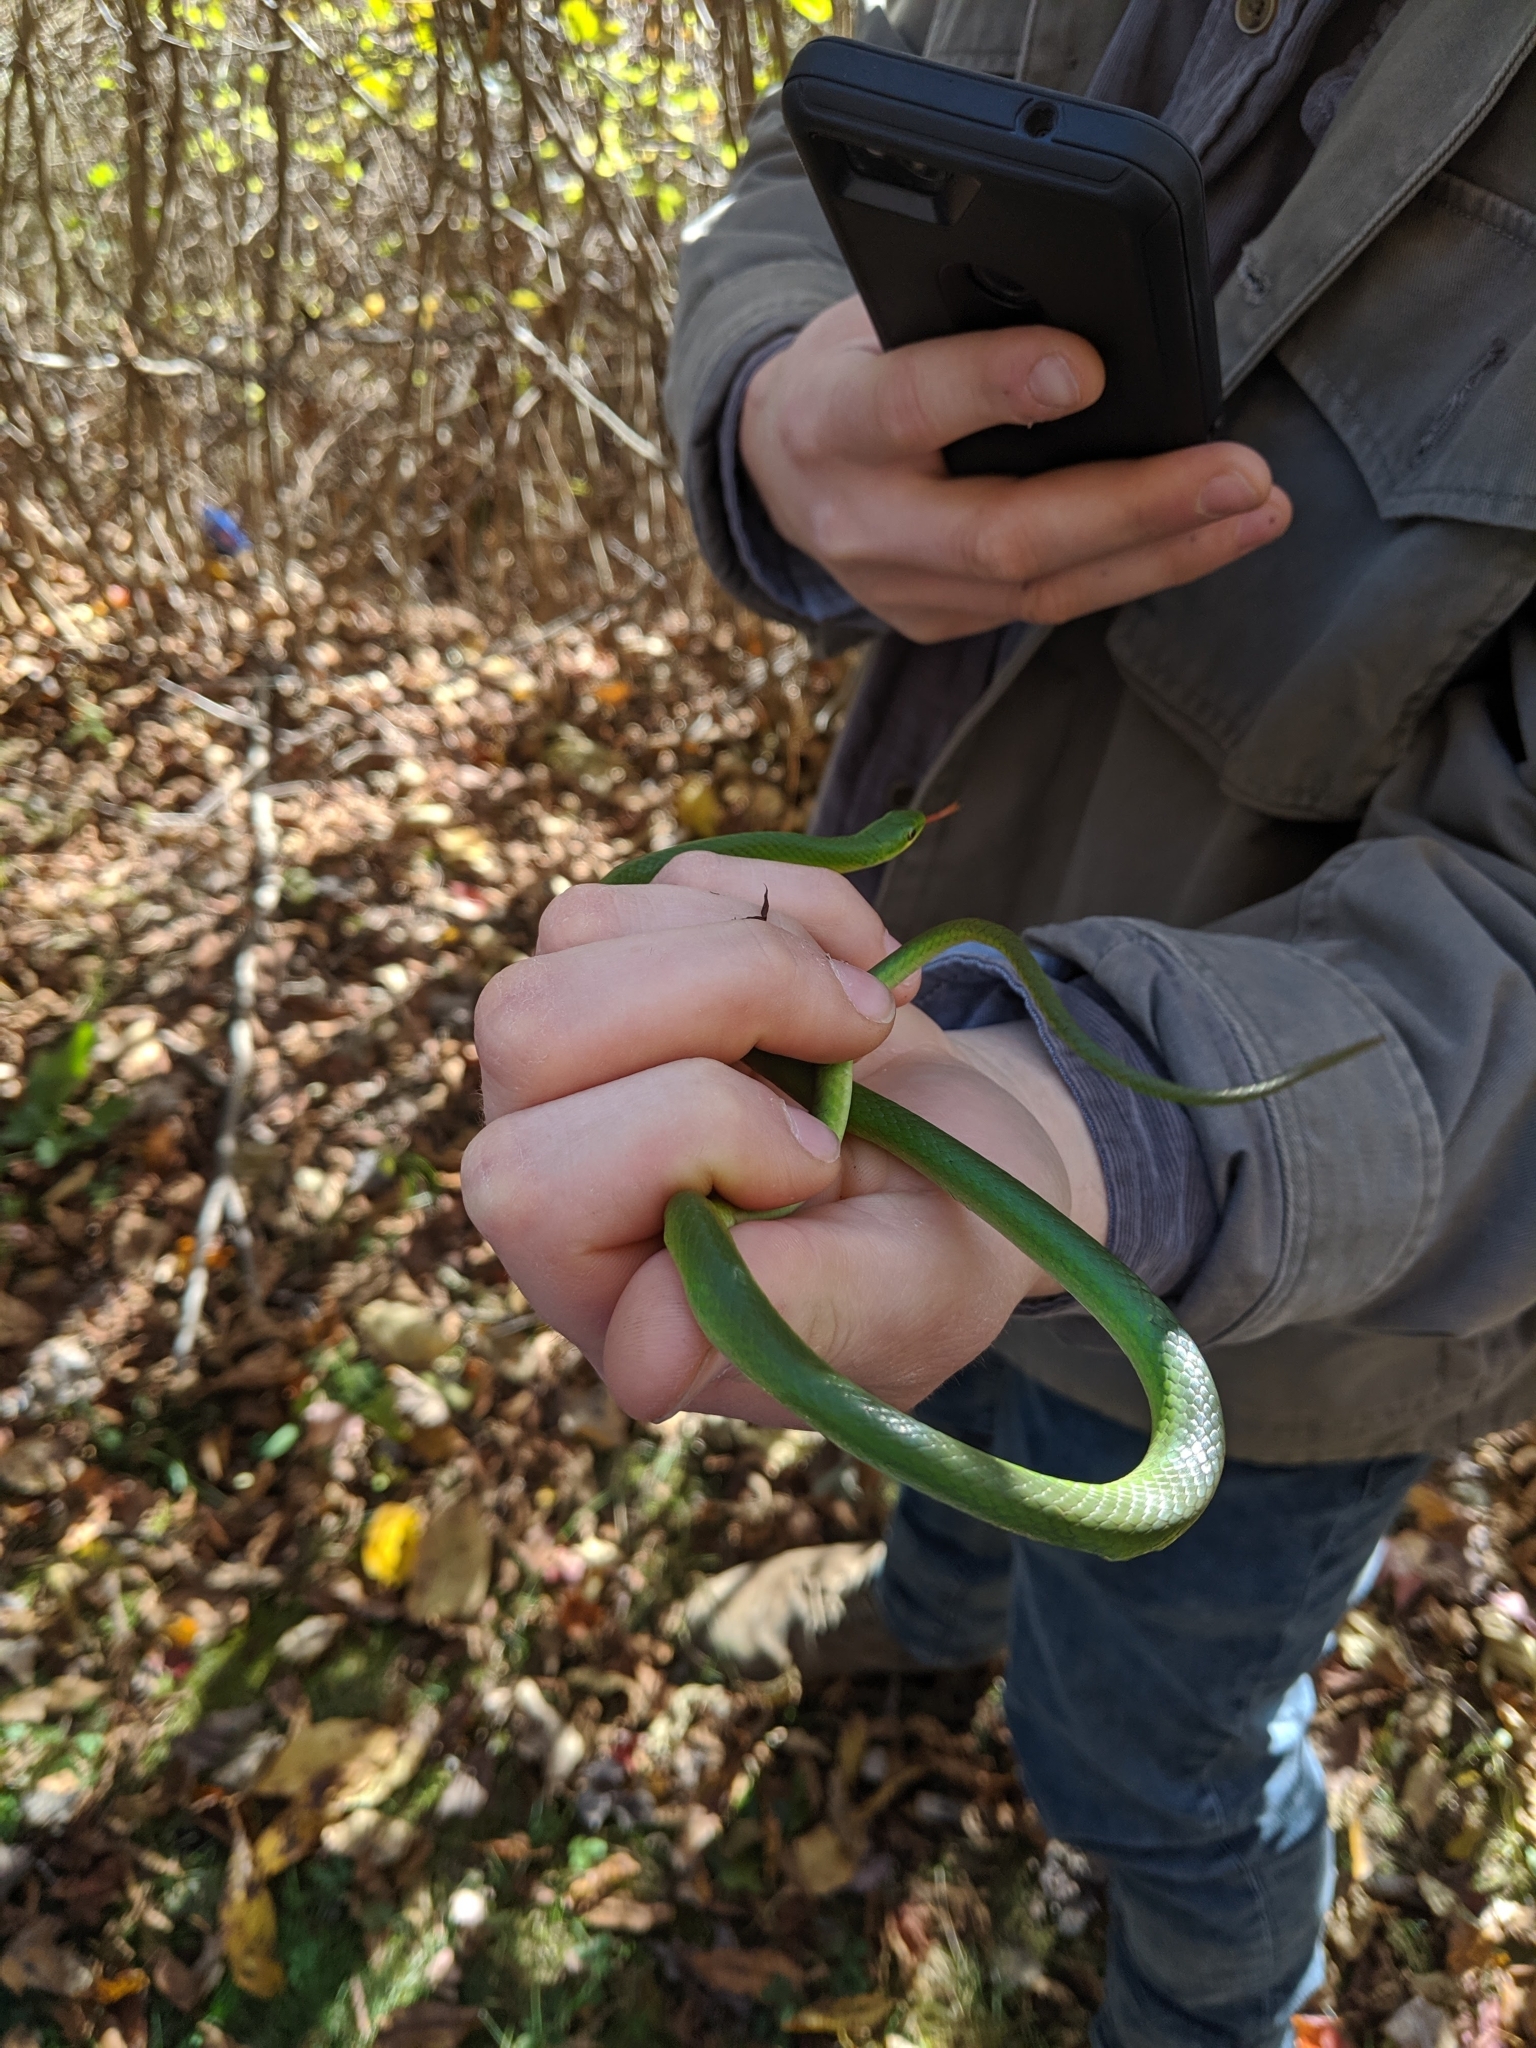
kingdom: Animalia
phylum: Chordata
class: Squamata
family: Colubridae
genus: Opheodrys
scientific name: Opheodrys vernalis
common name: Smooth green snake
